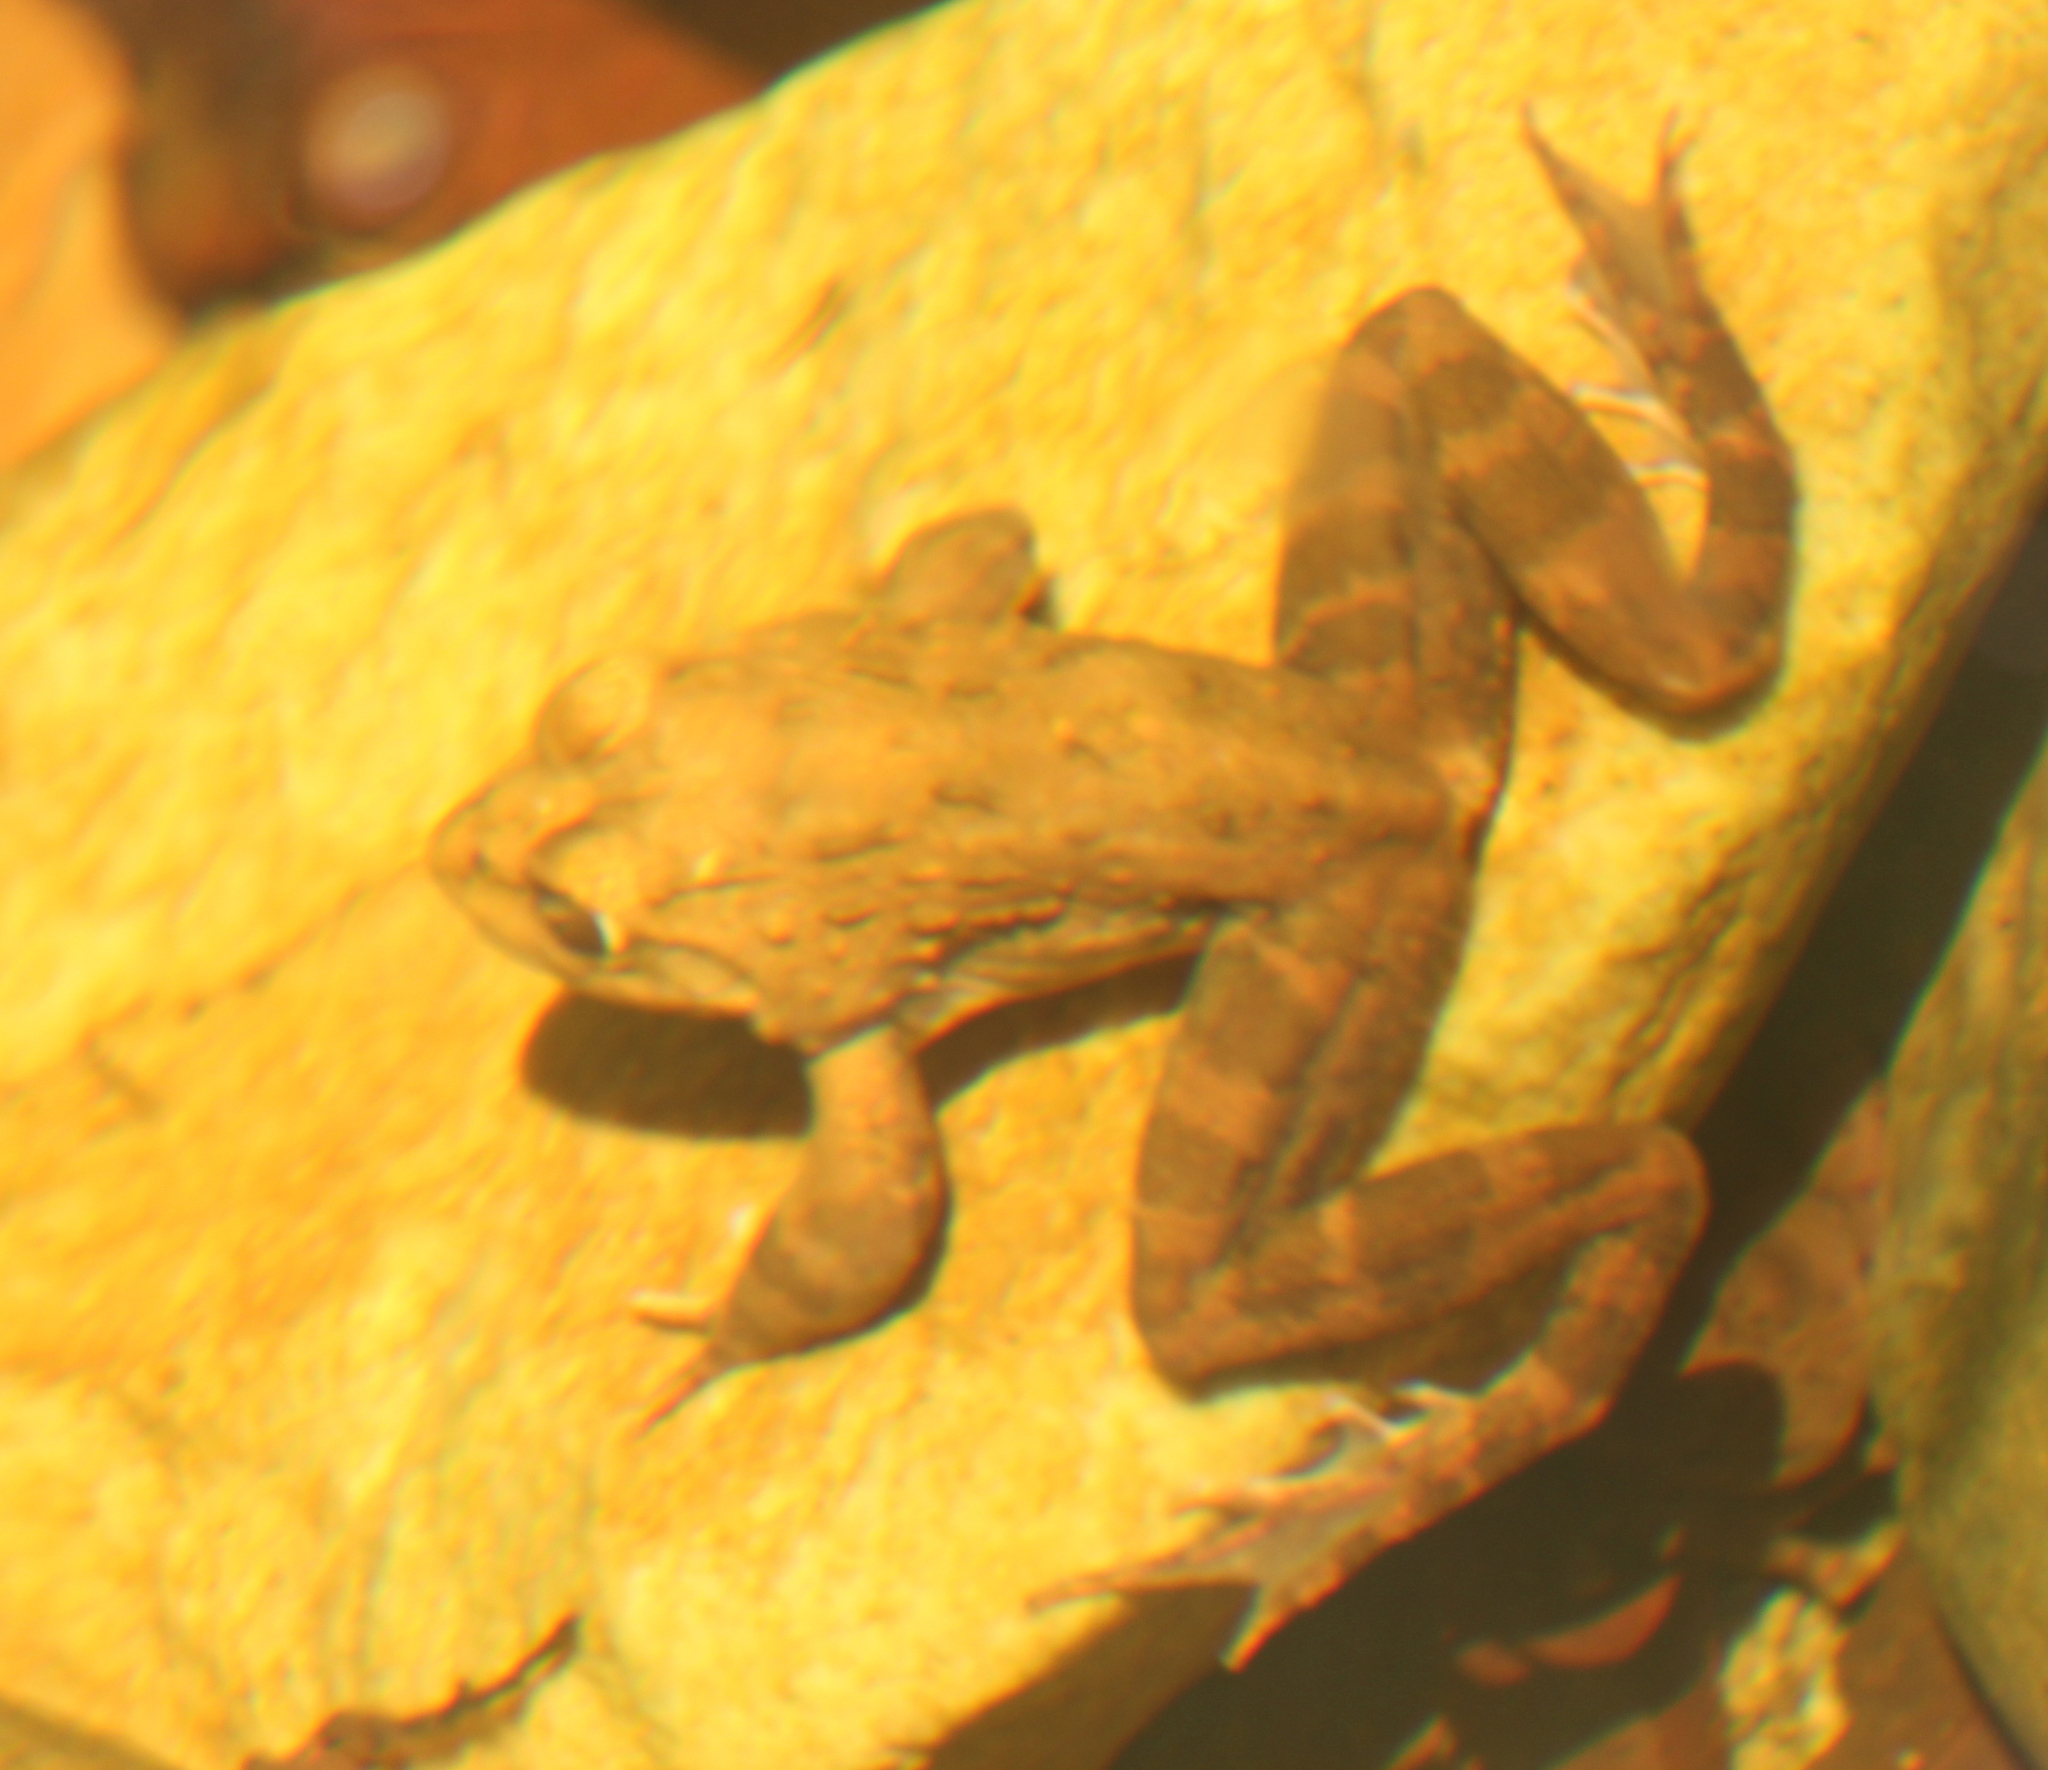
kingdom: Animalia
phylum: Chordata
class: Amphibia
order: Anura
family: Pyxicephalidae
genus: Amietia
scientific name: Amietia fuscigula
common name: Cape rana
